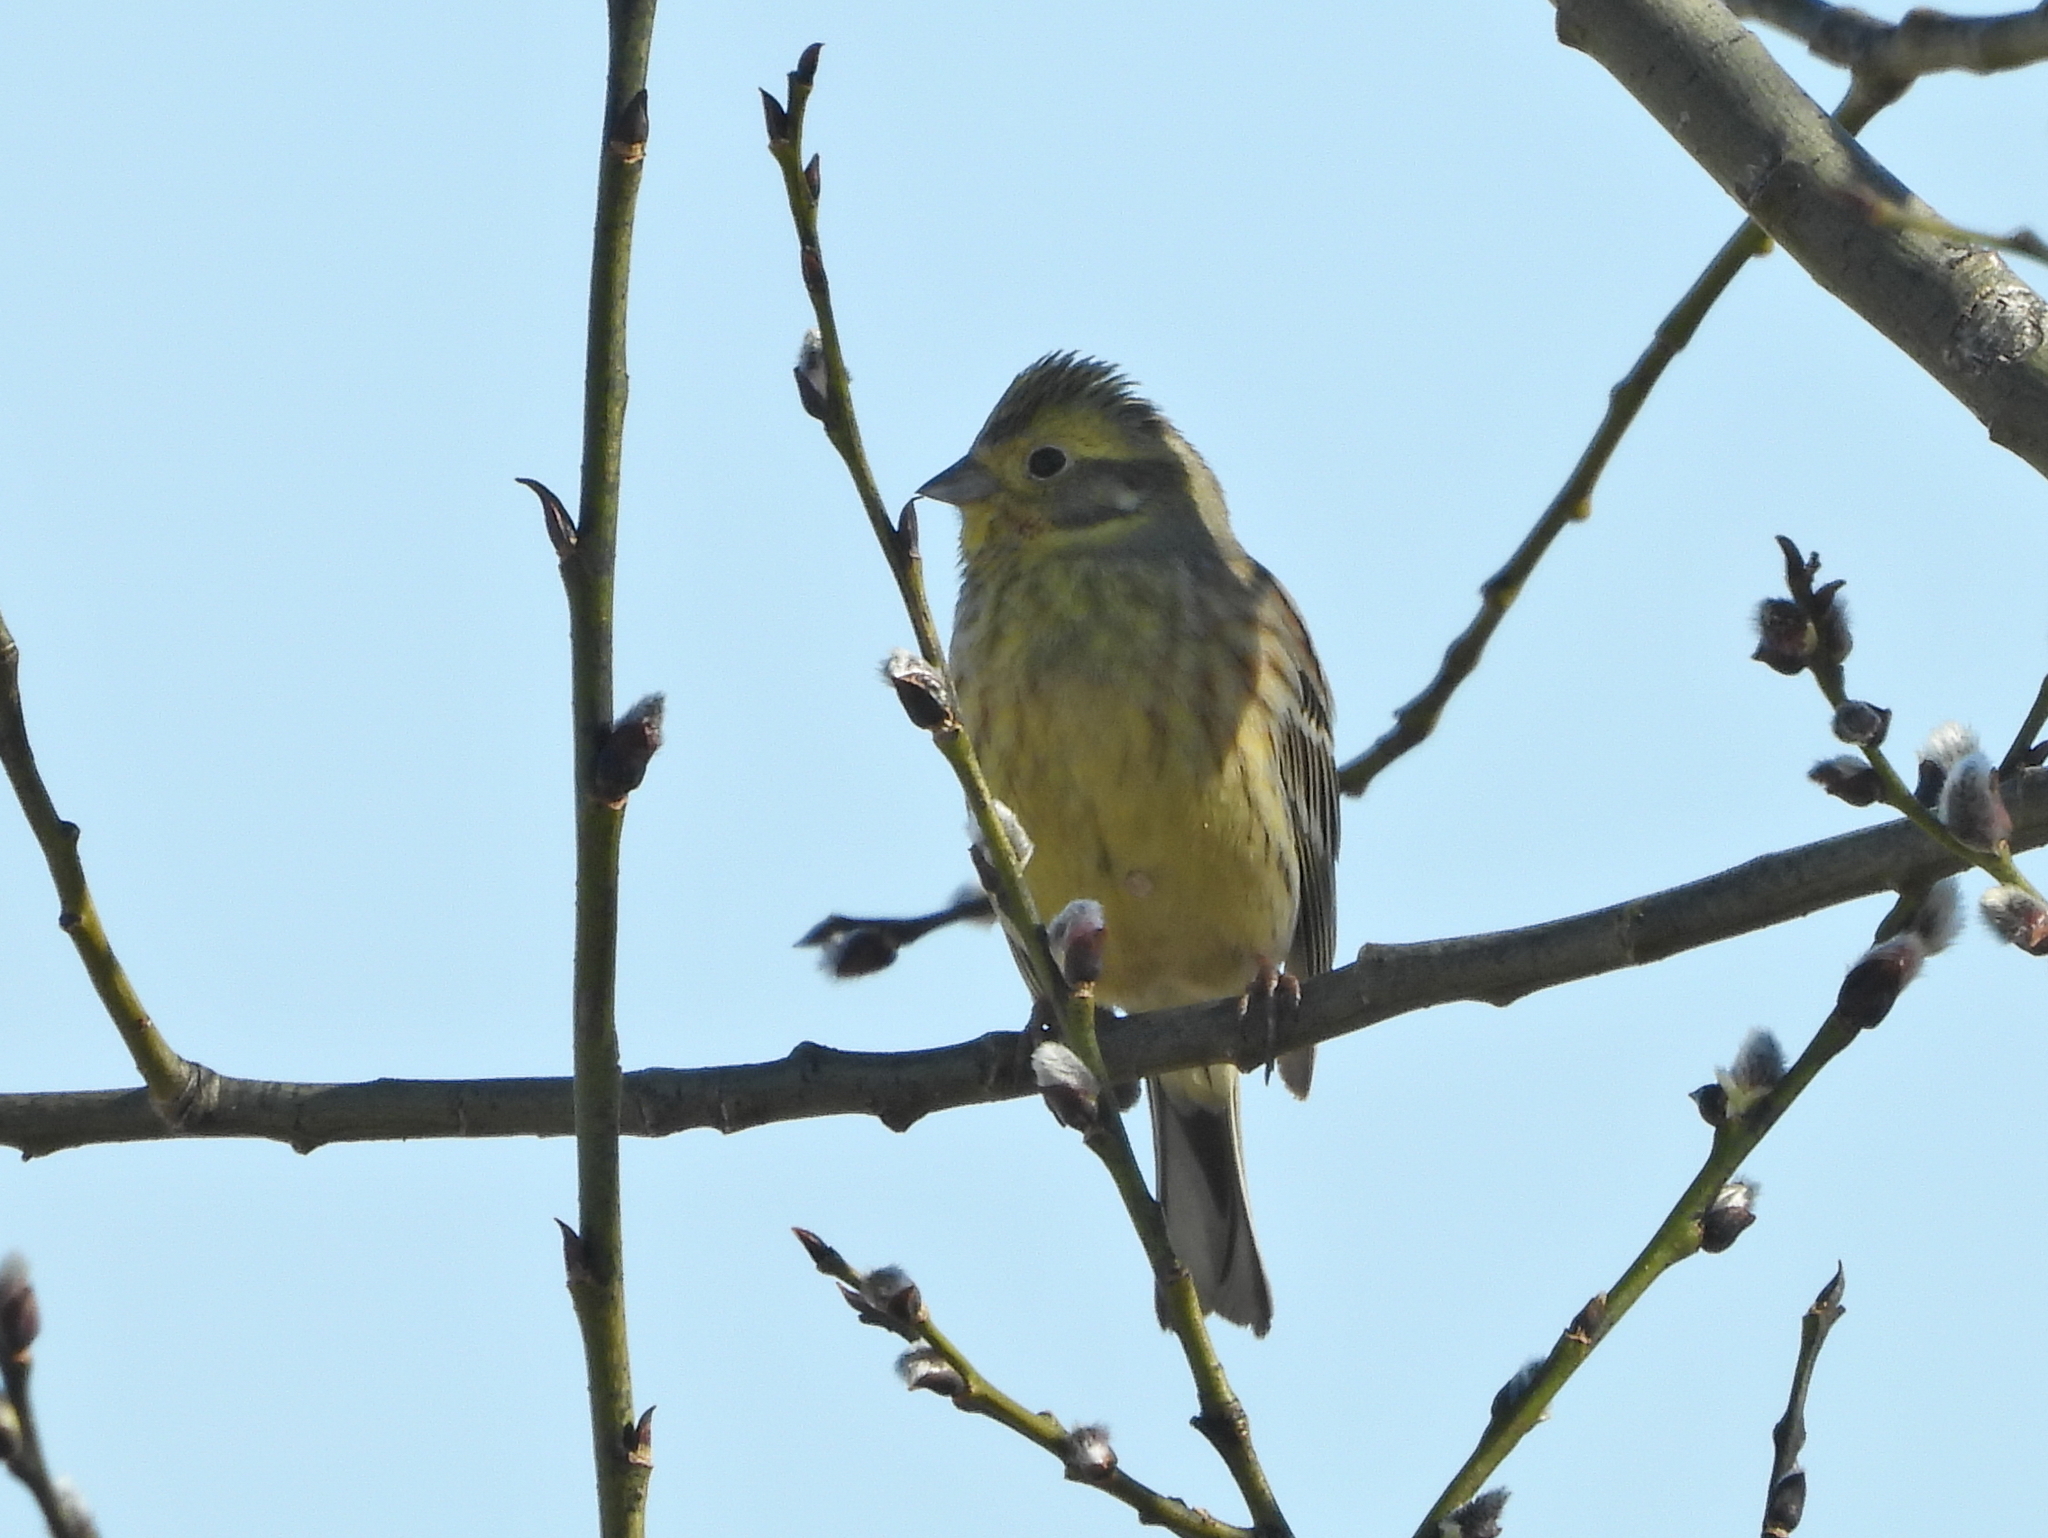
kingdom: Animalia
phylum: Chordata
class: Aves
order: Passeriformes
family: Emberizidae
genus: Emberiza
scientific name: Emberiza citrinella
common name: Yellowhammer
